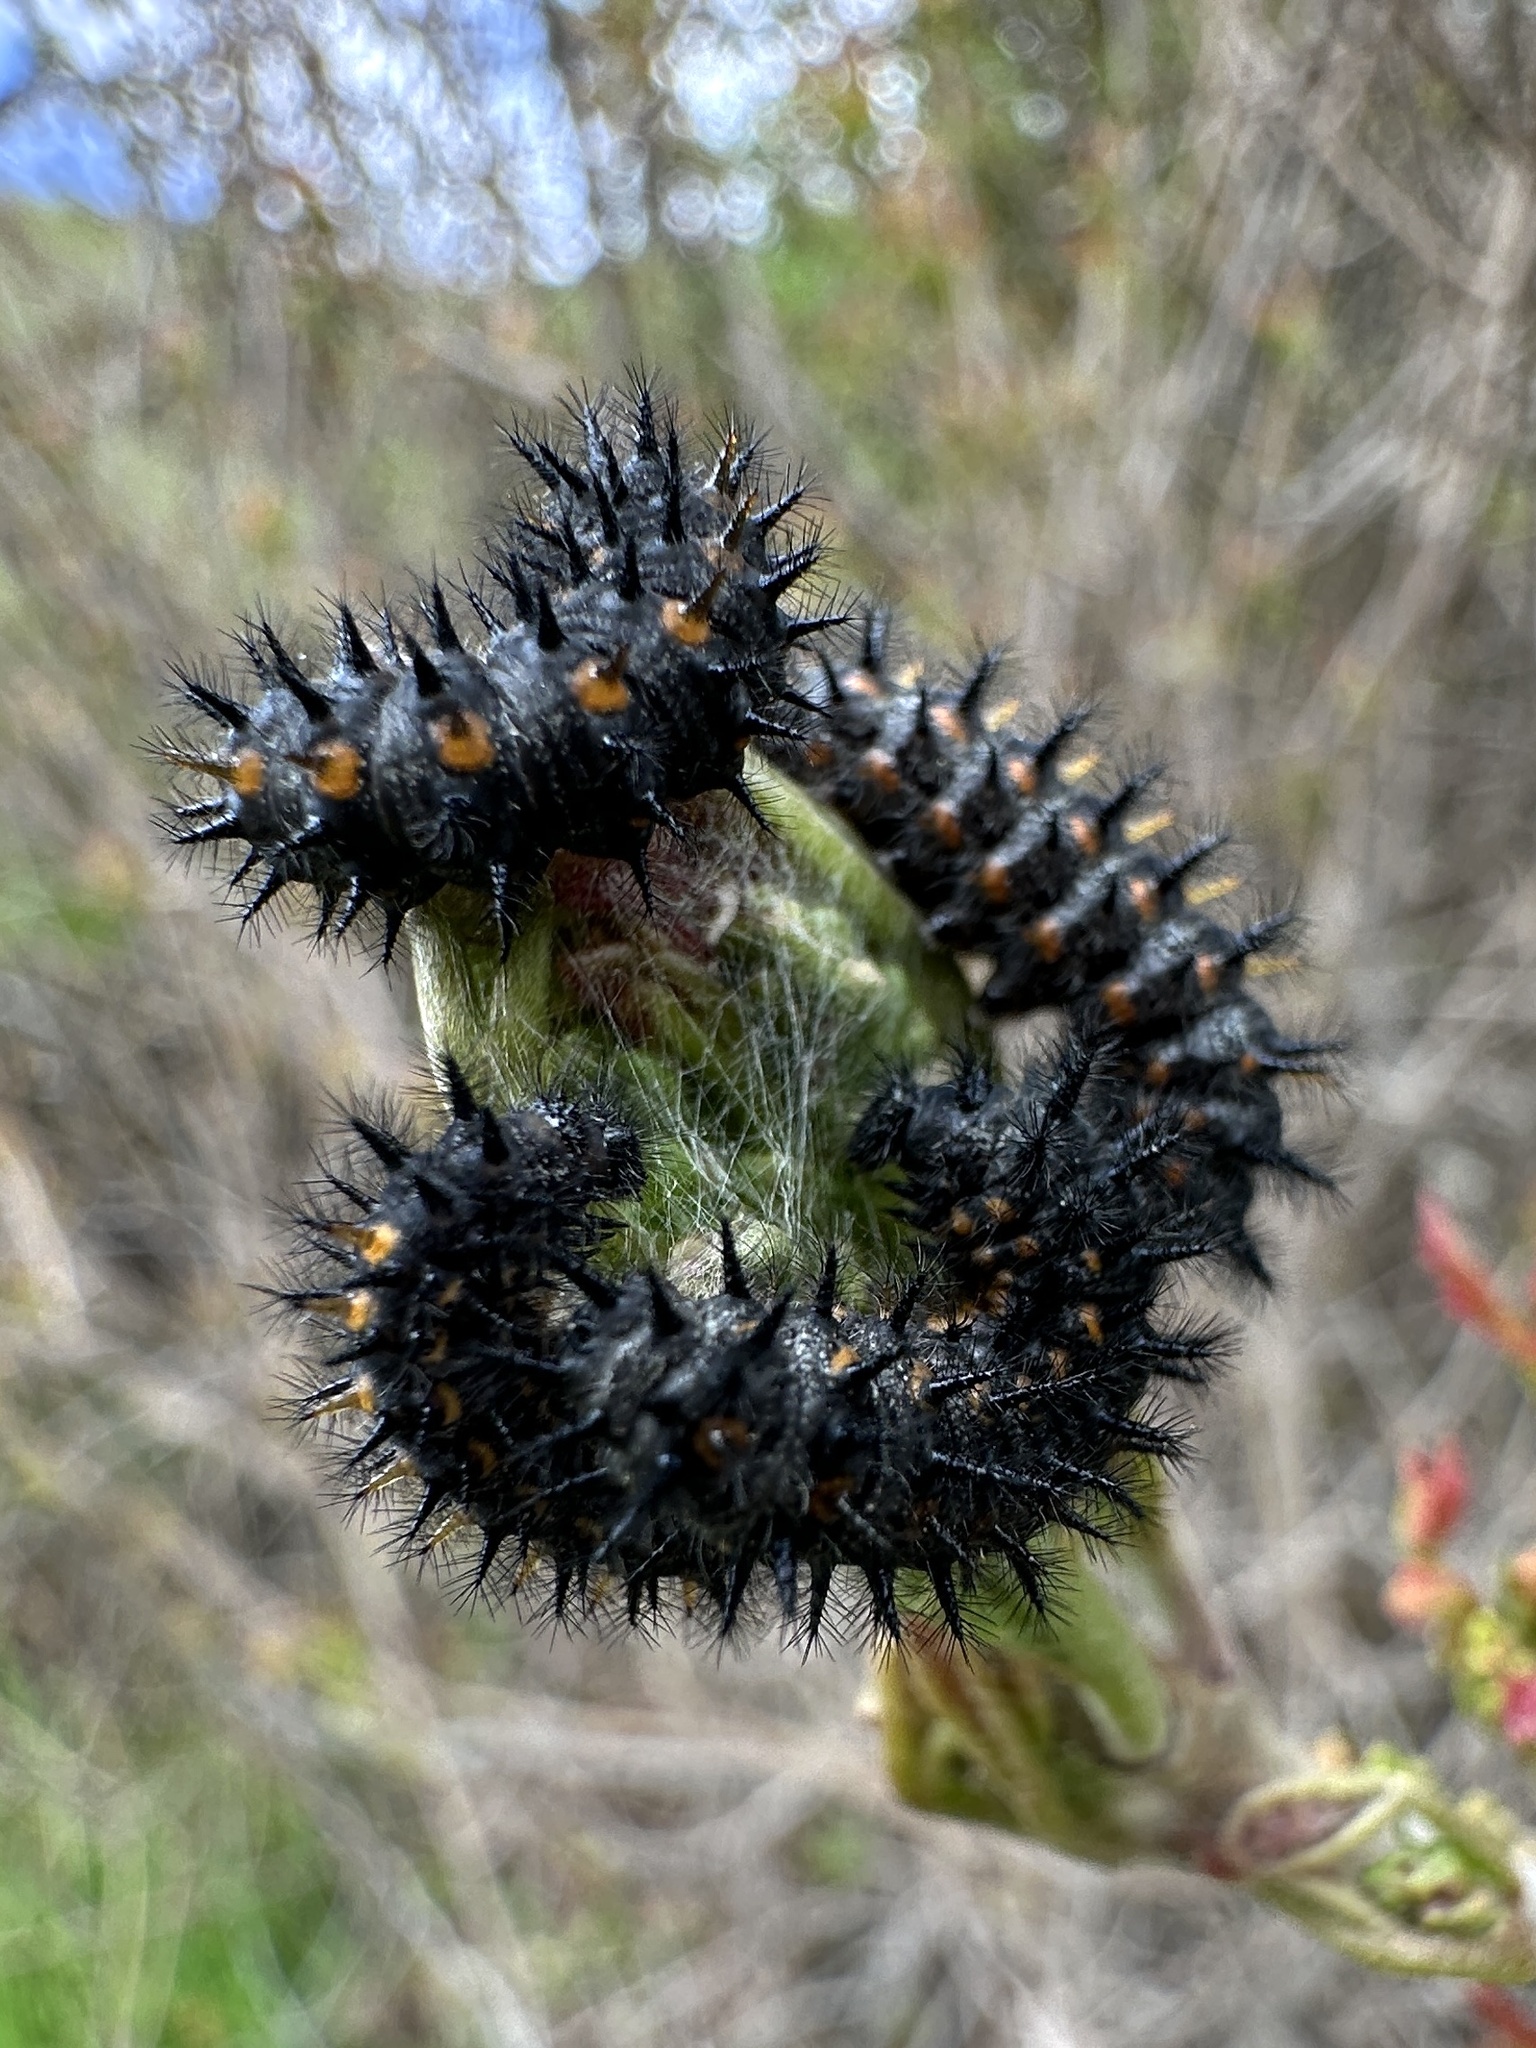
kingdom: Animalia
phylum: Arthropoda
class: Insecta
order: Lepidoptera
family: Nymphalidae
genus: Occidryas
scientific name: Occidryas chalcedona
